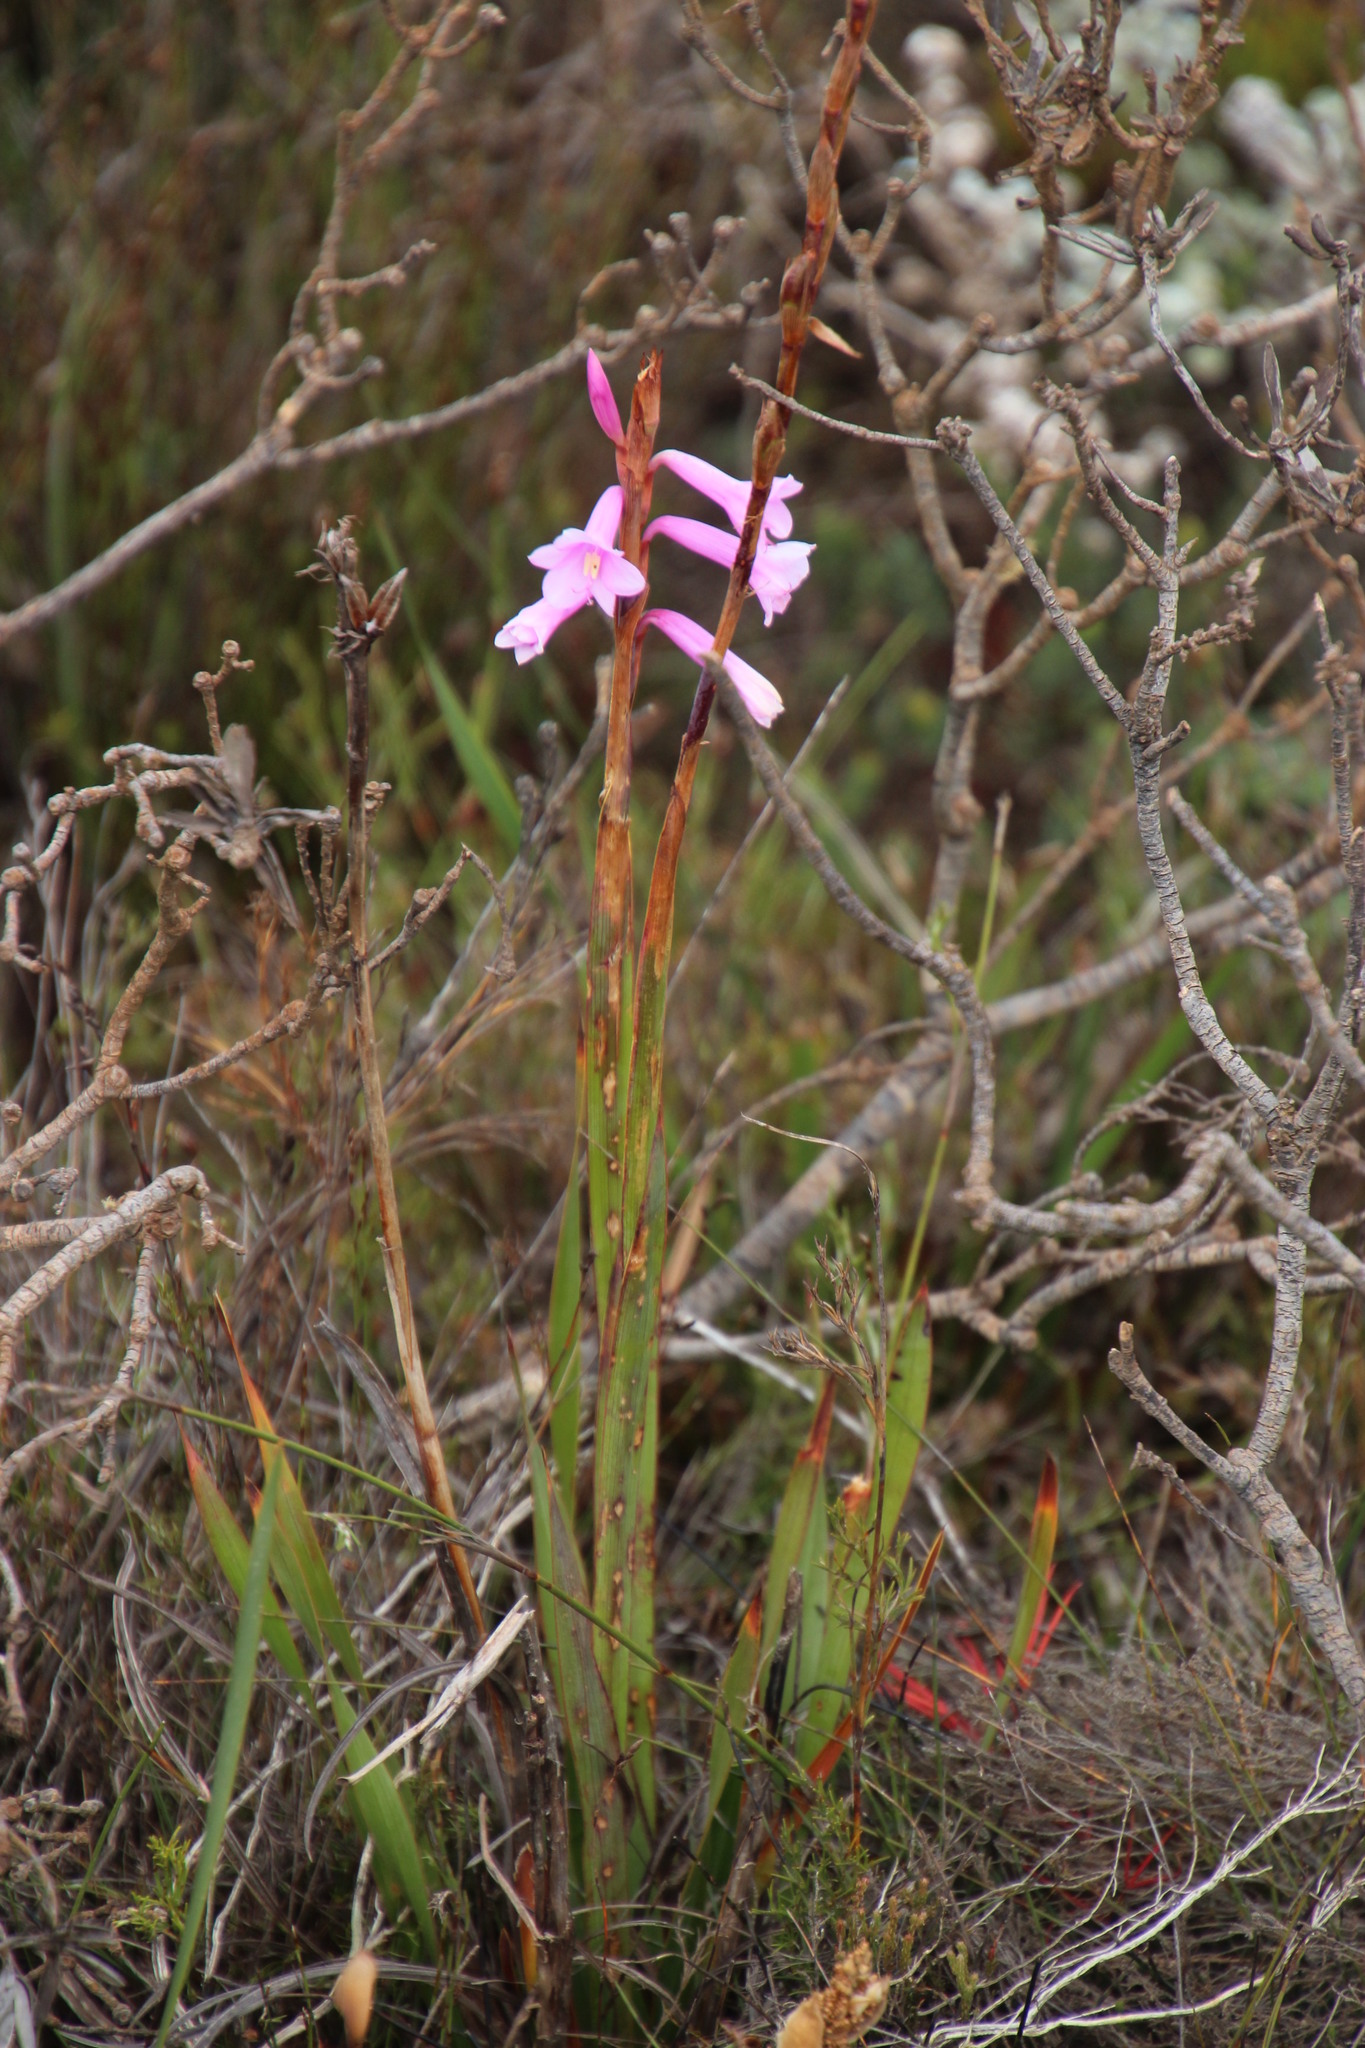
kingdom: Plantae
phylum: Tracheophyta
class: Liliopsida
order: Asparagales
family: Iridaceae
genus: Watsonia
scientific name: Watsonia laccata
